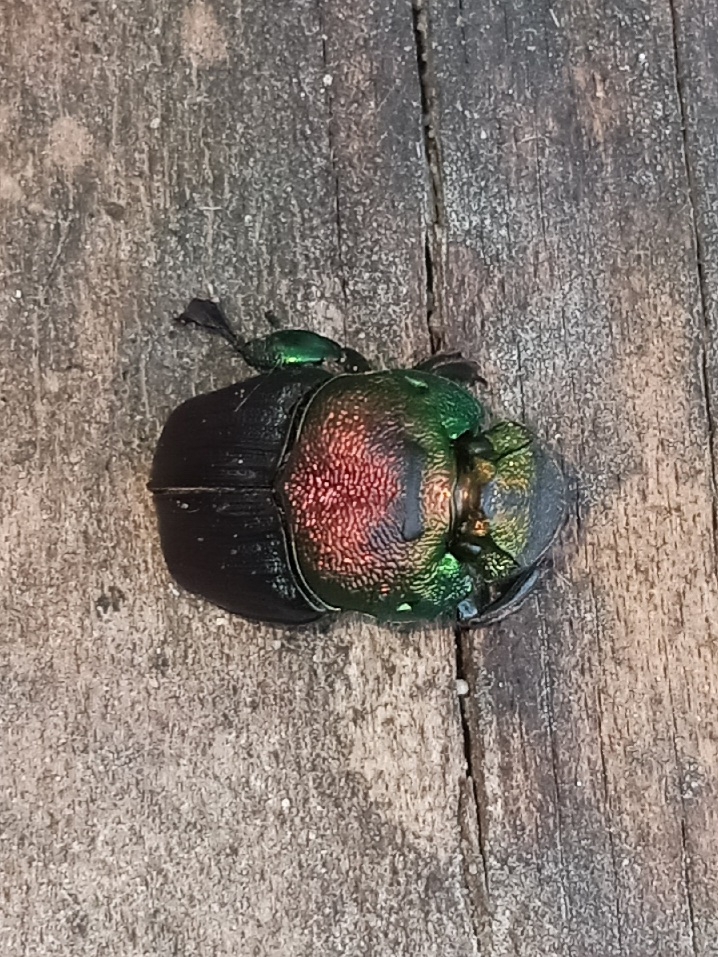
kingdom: Animalia
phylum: Arthropoda
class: Insecta
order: Coleoptera
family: Scarabaeidae
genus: Phanaeus
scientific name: Phanaeus vindex
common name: Rainbow scarab
